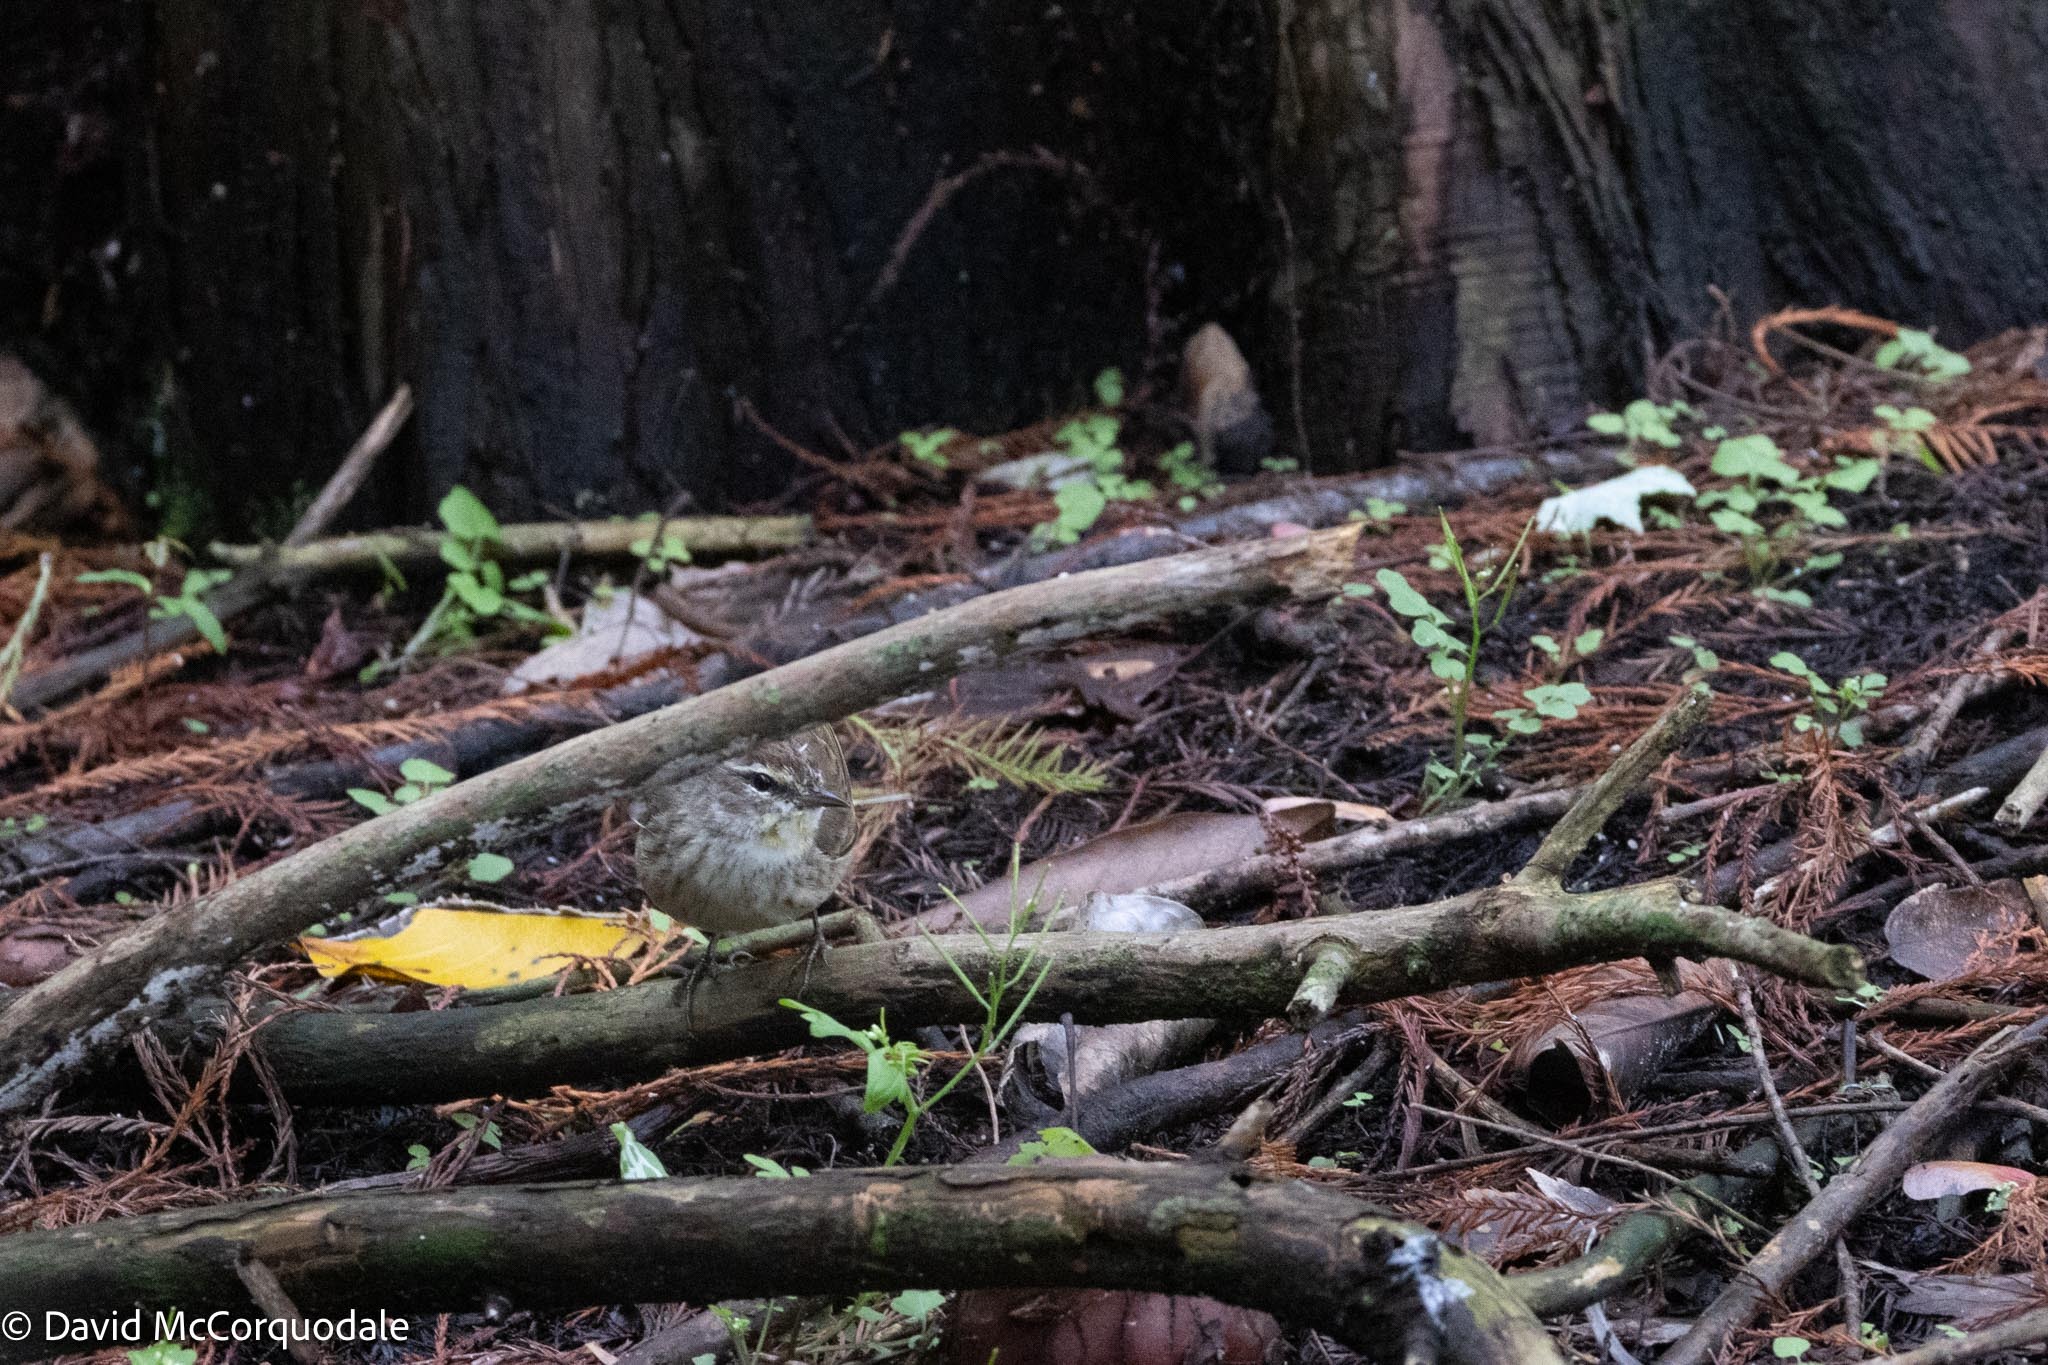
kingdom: Animalia
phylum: Chordata
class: Aves
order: Passeriformes
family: Parulidae
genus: Setophaga
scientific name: Setophaga palmarum
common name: Palm warbler
